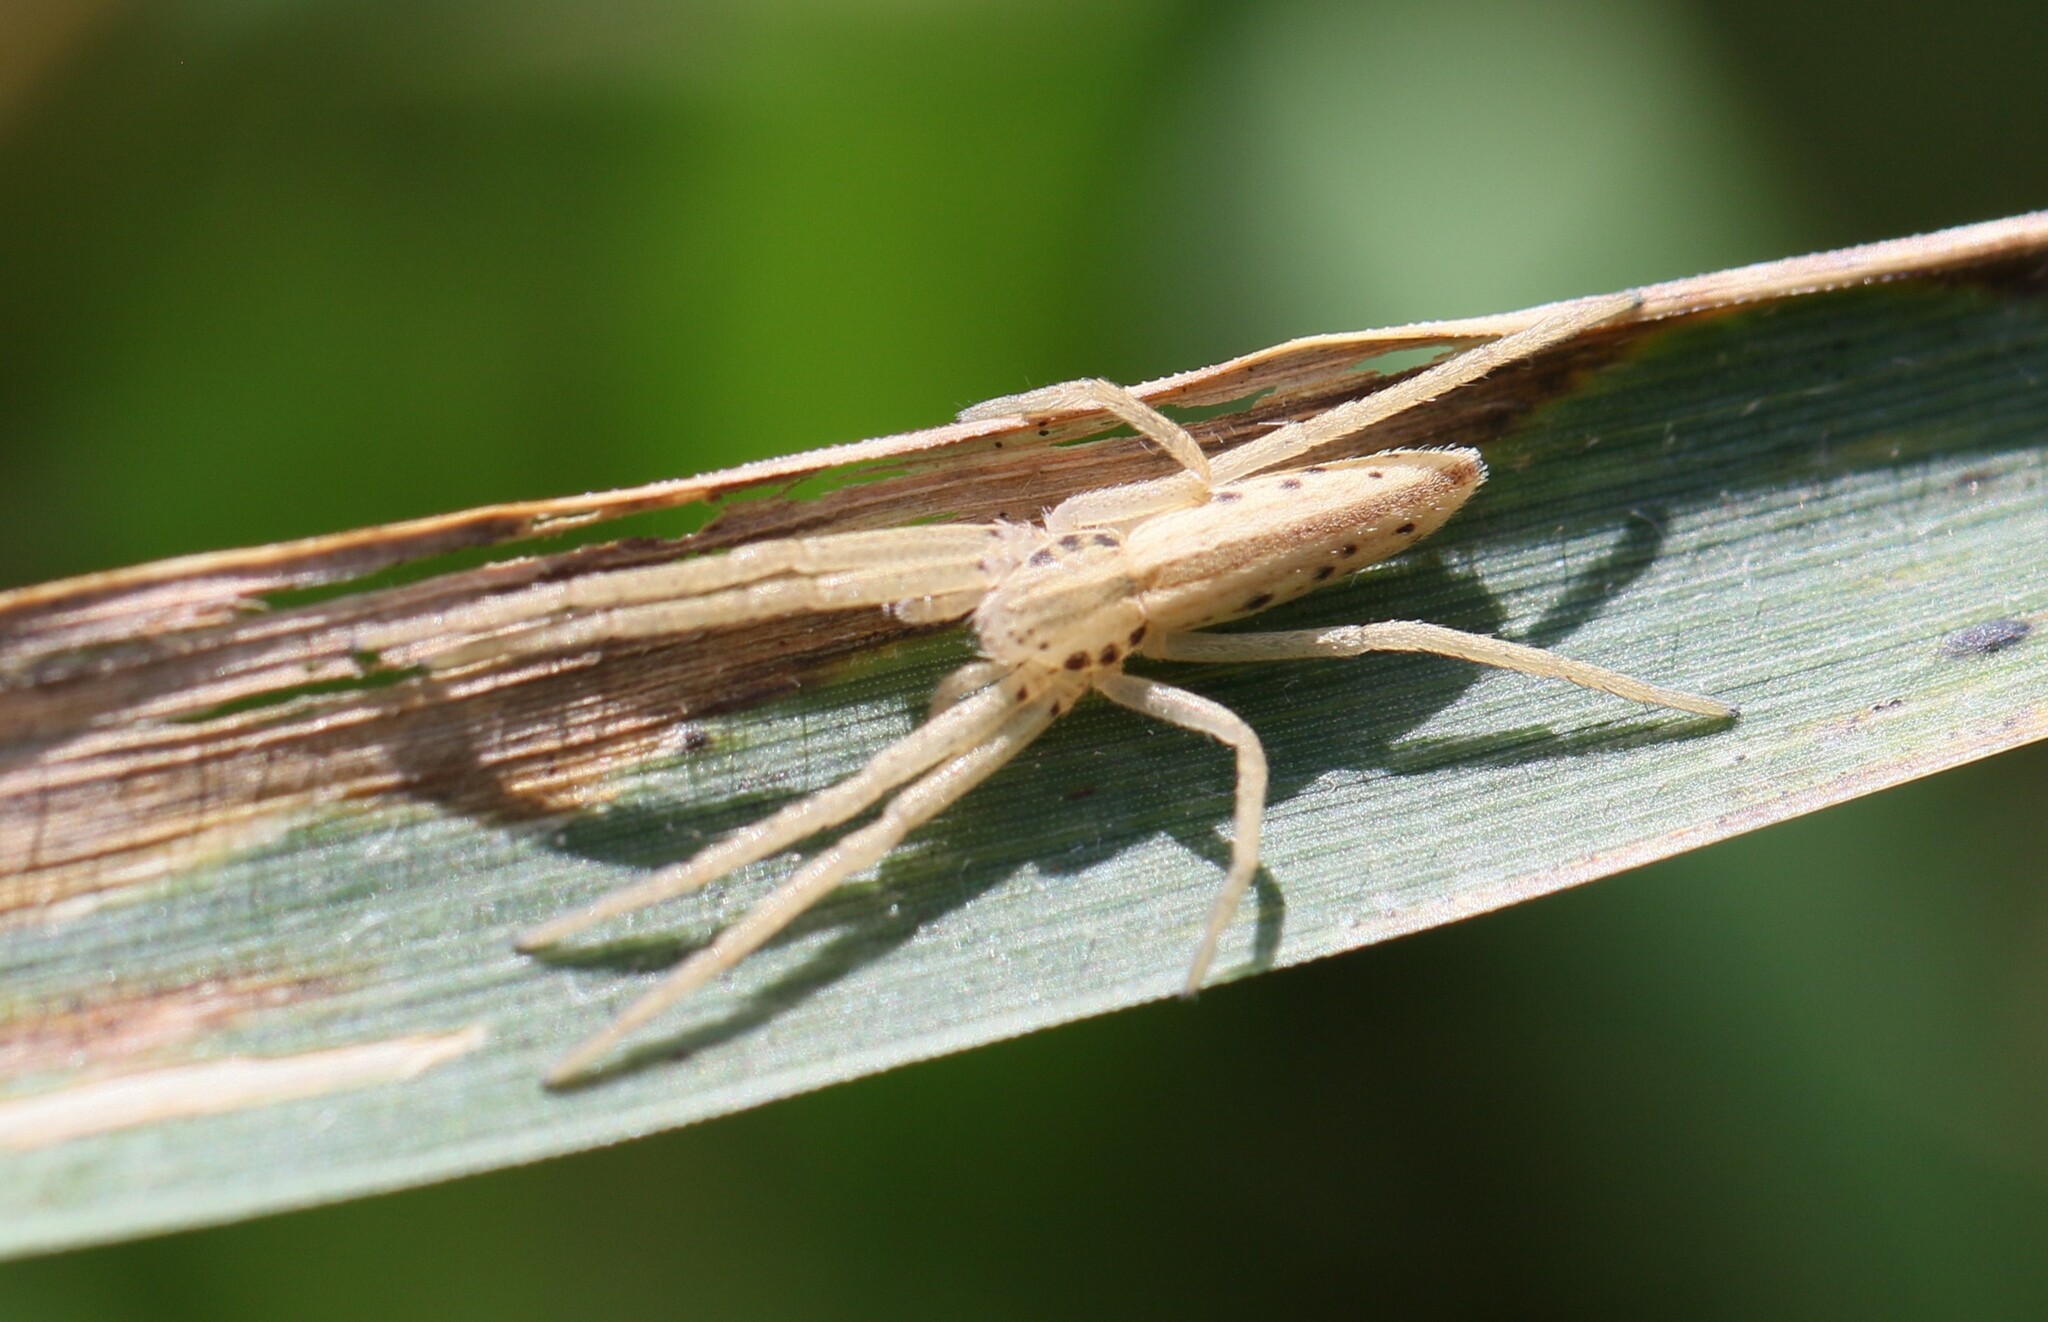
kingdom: Animalia
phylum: Arthropoda
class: Arachnida
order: Araneae
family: Philodromidae
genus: Tibellus
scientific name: Tibellus maritimus
